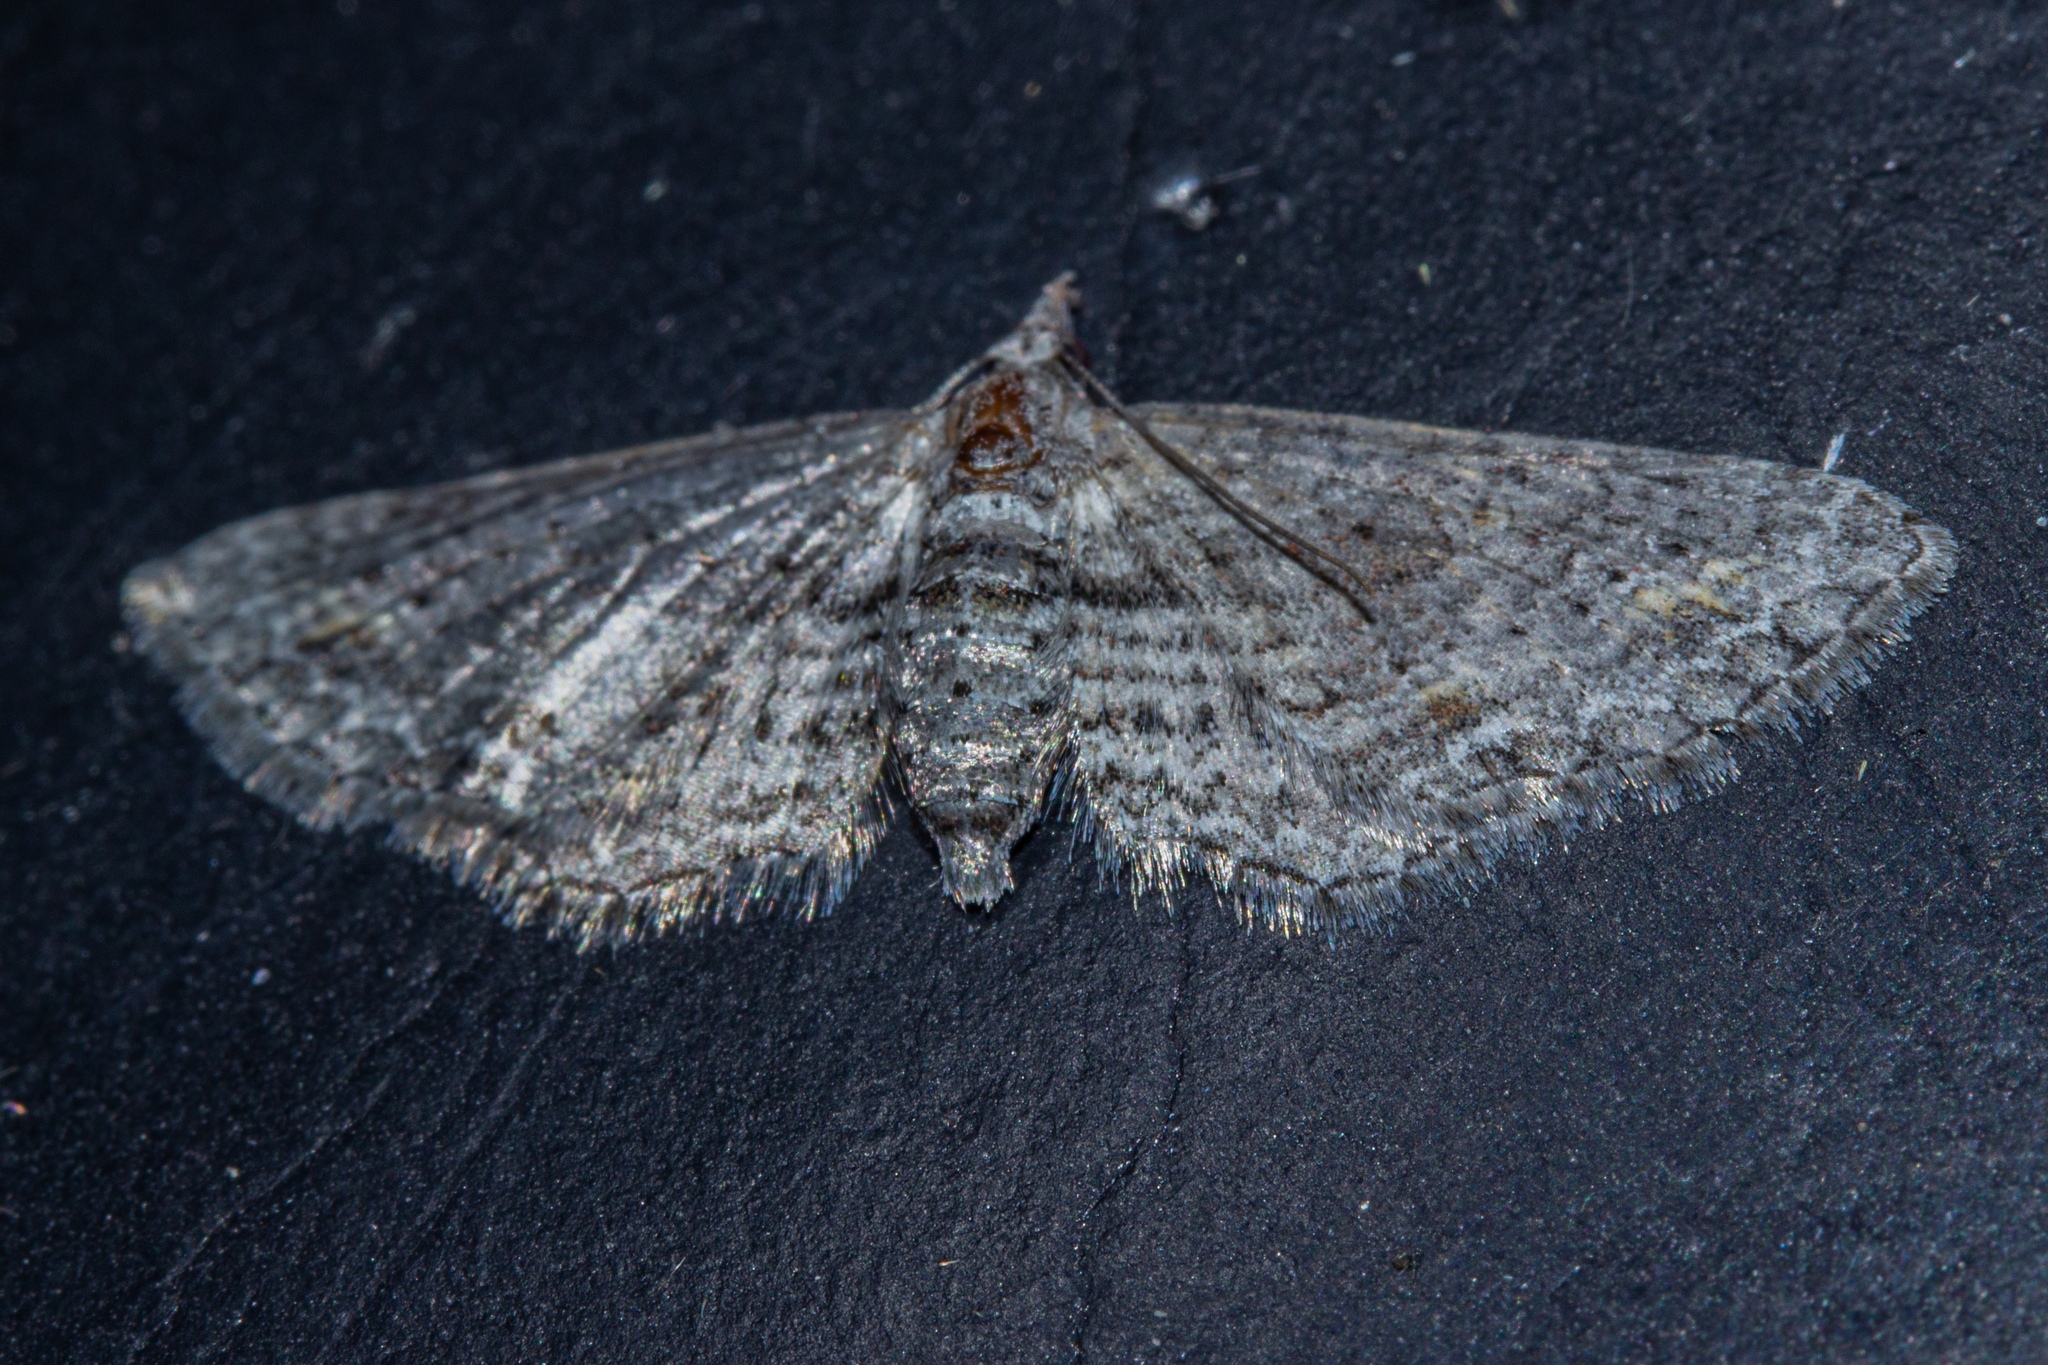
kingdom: Animalia
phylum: Arthropoda
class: Insecta
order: Lepidoptera
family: Geometridae
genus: Pasiphila
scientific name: Pasiphila humilis
